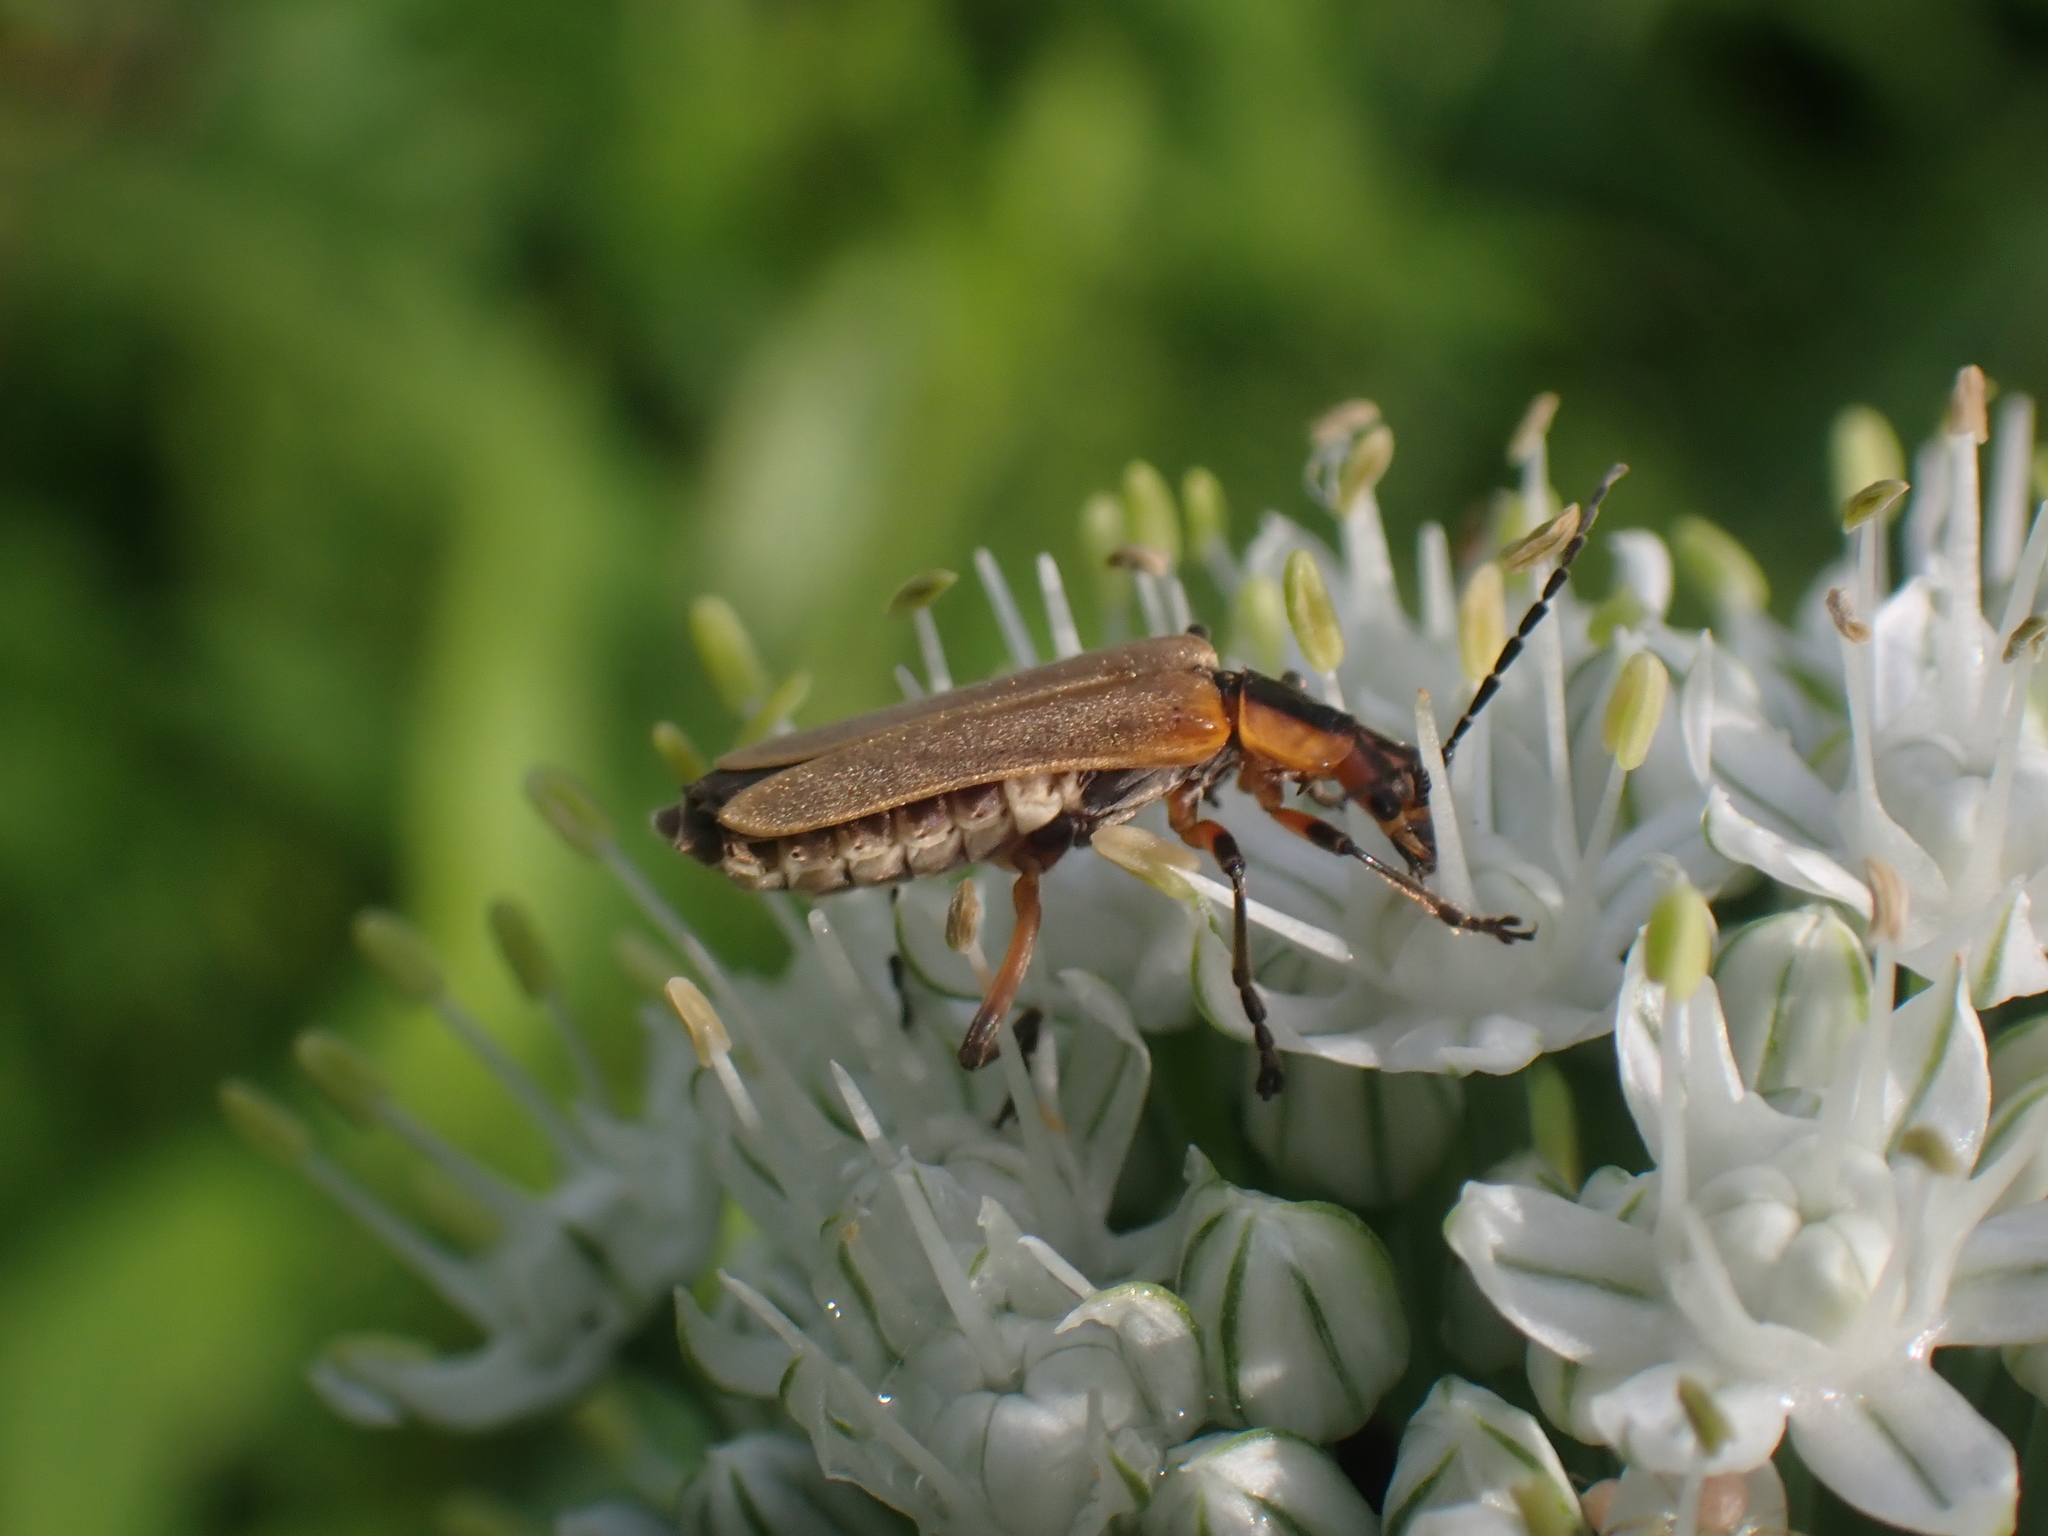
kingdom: Animalia
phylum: Arthropoda
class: Insecta
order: Coleoptera
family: Cantharidae
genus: Chauliognathus
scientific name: Chauliognathus marginatus
